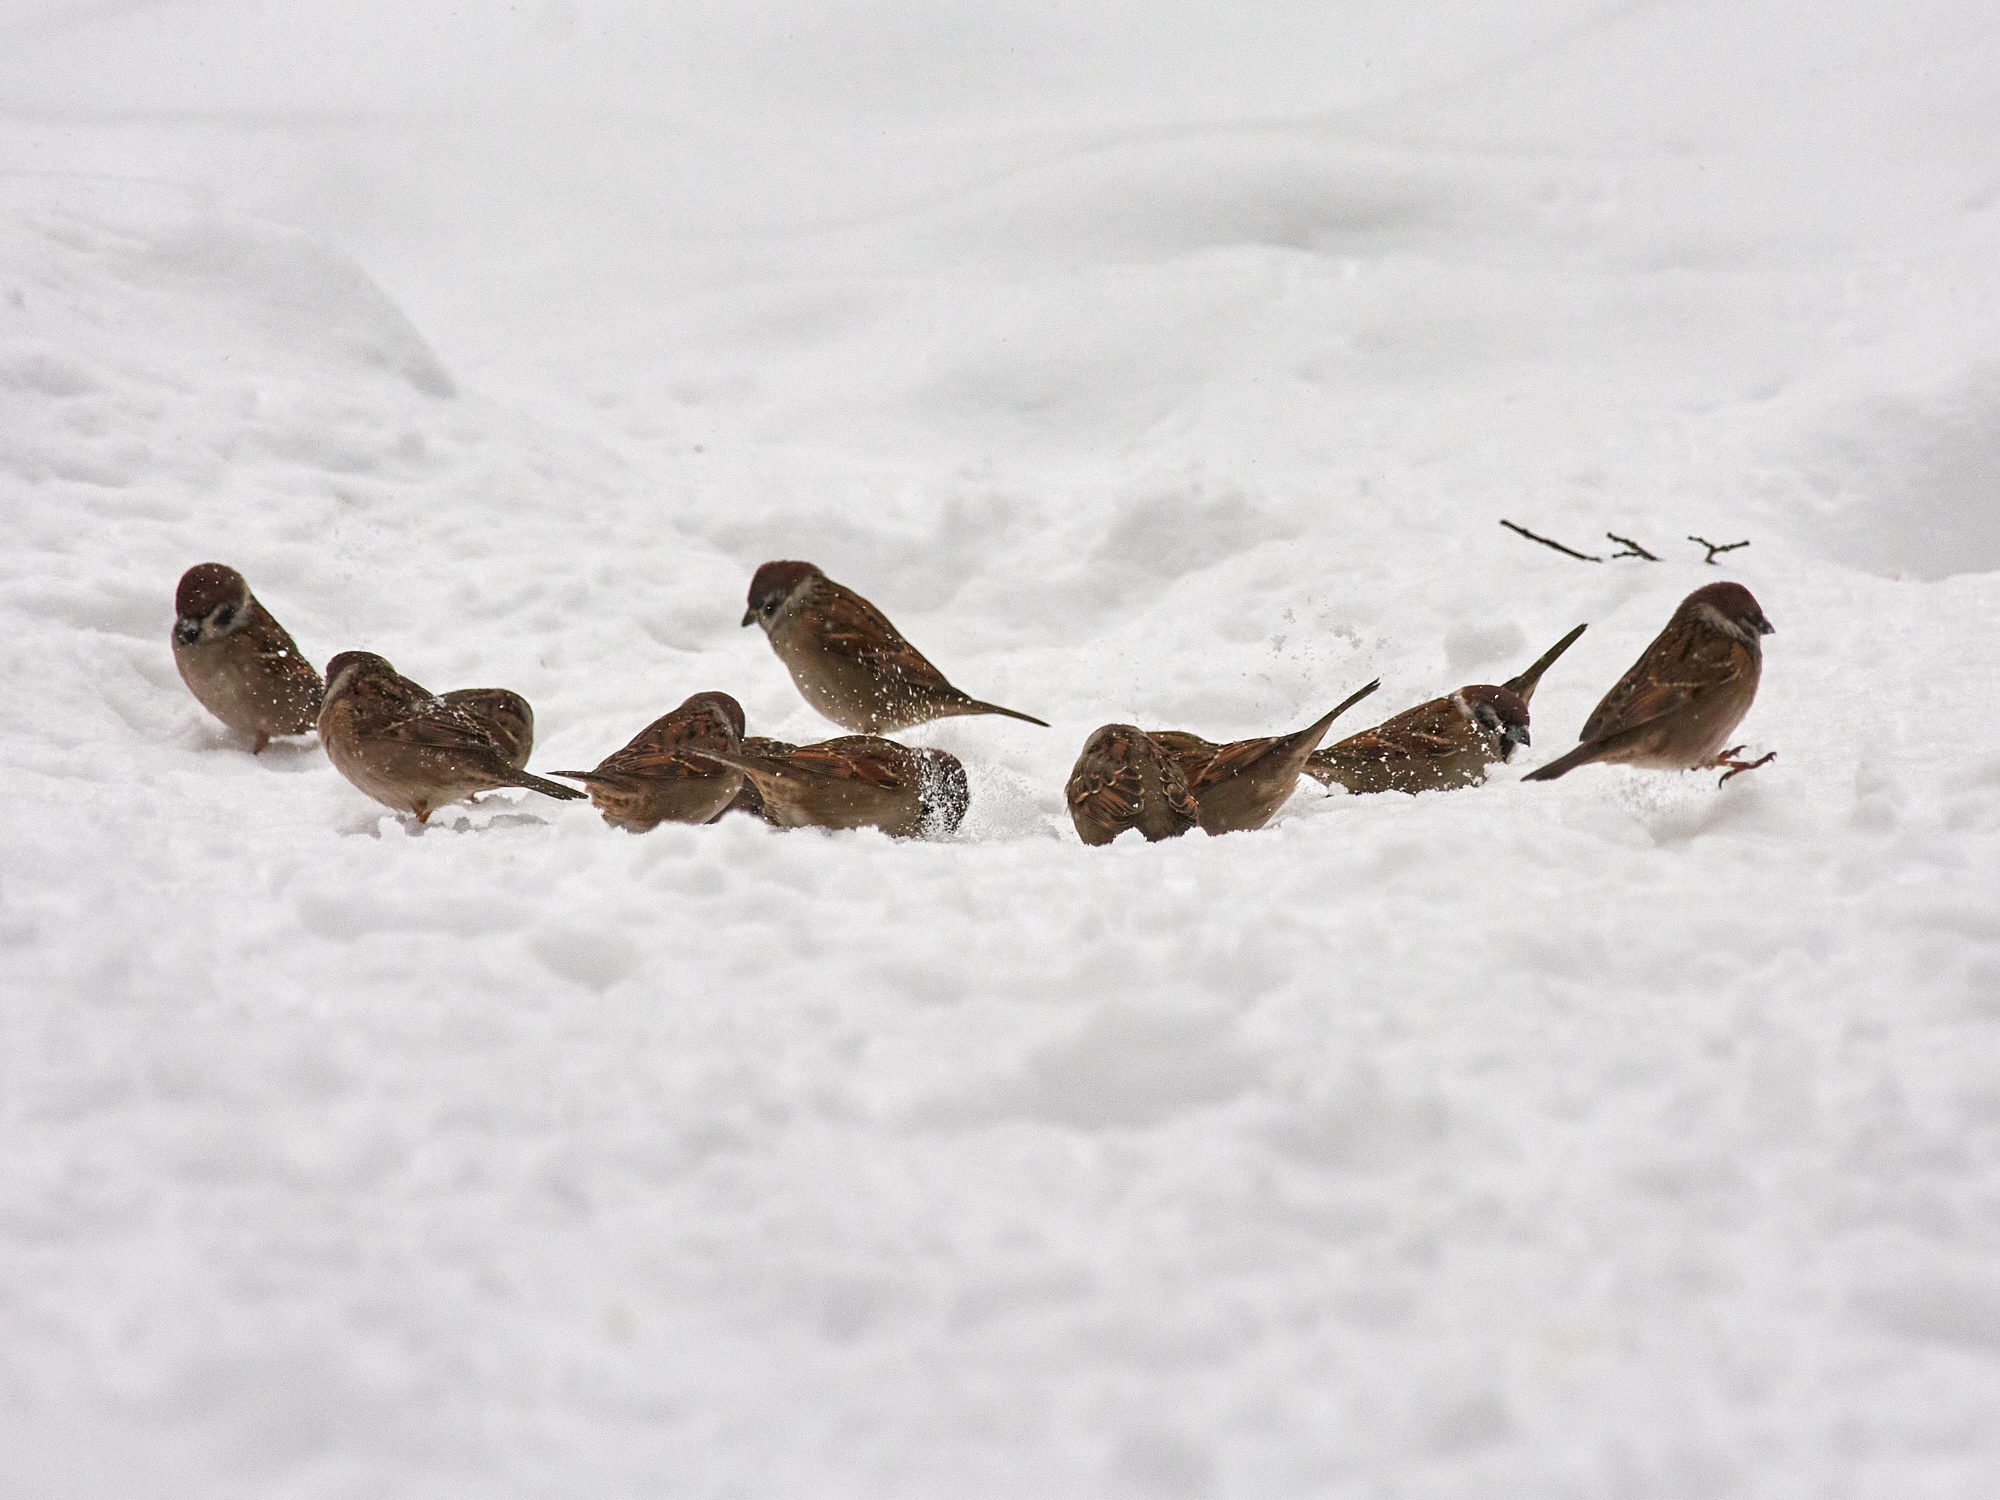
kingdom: Animalia
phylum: Chordata
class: Aves
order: Passeriformes
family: Passeridae
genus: Passer
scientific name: Passer montanus
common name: Eurasian tree sparrow
